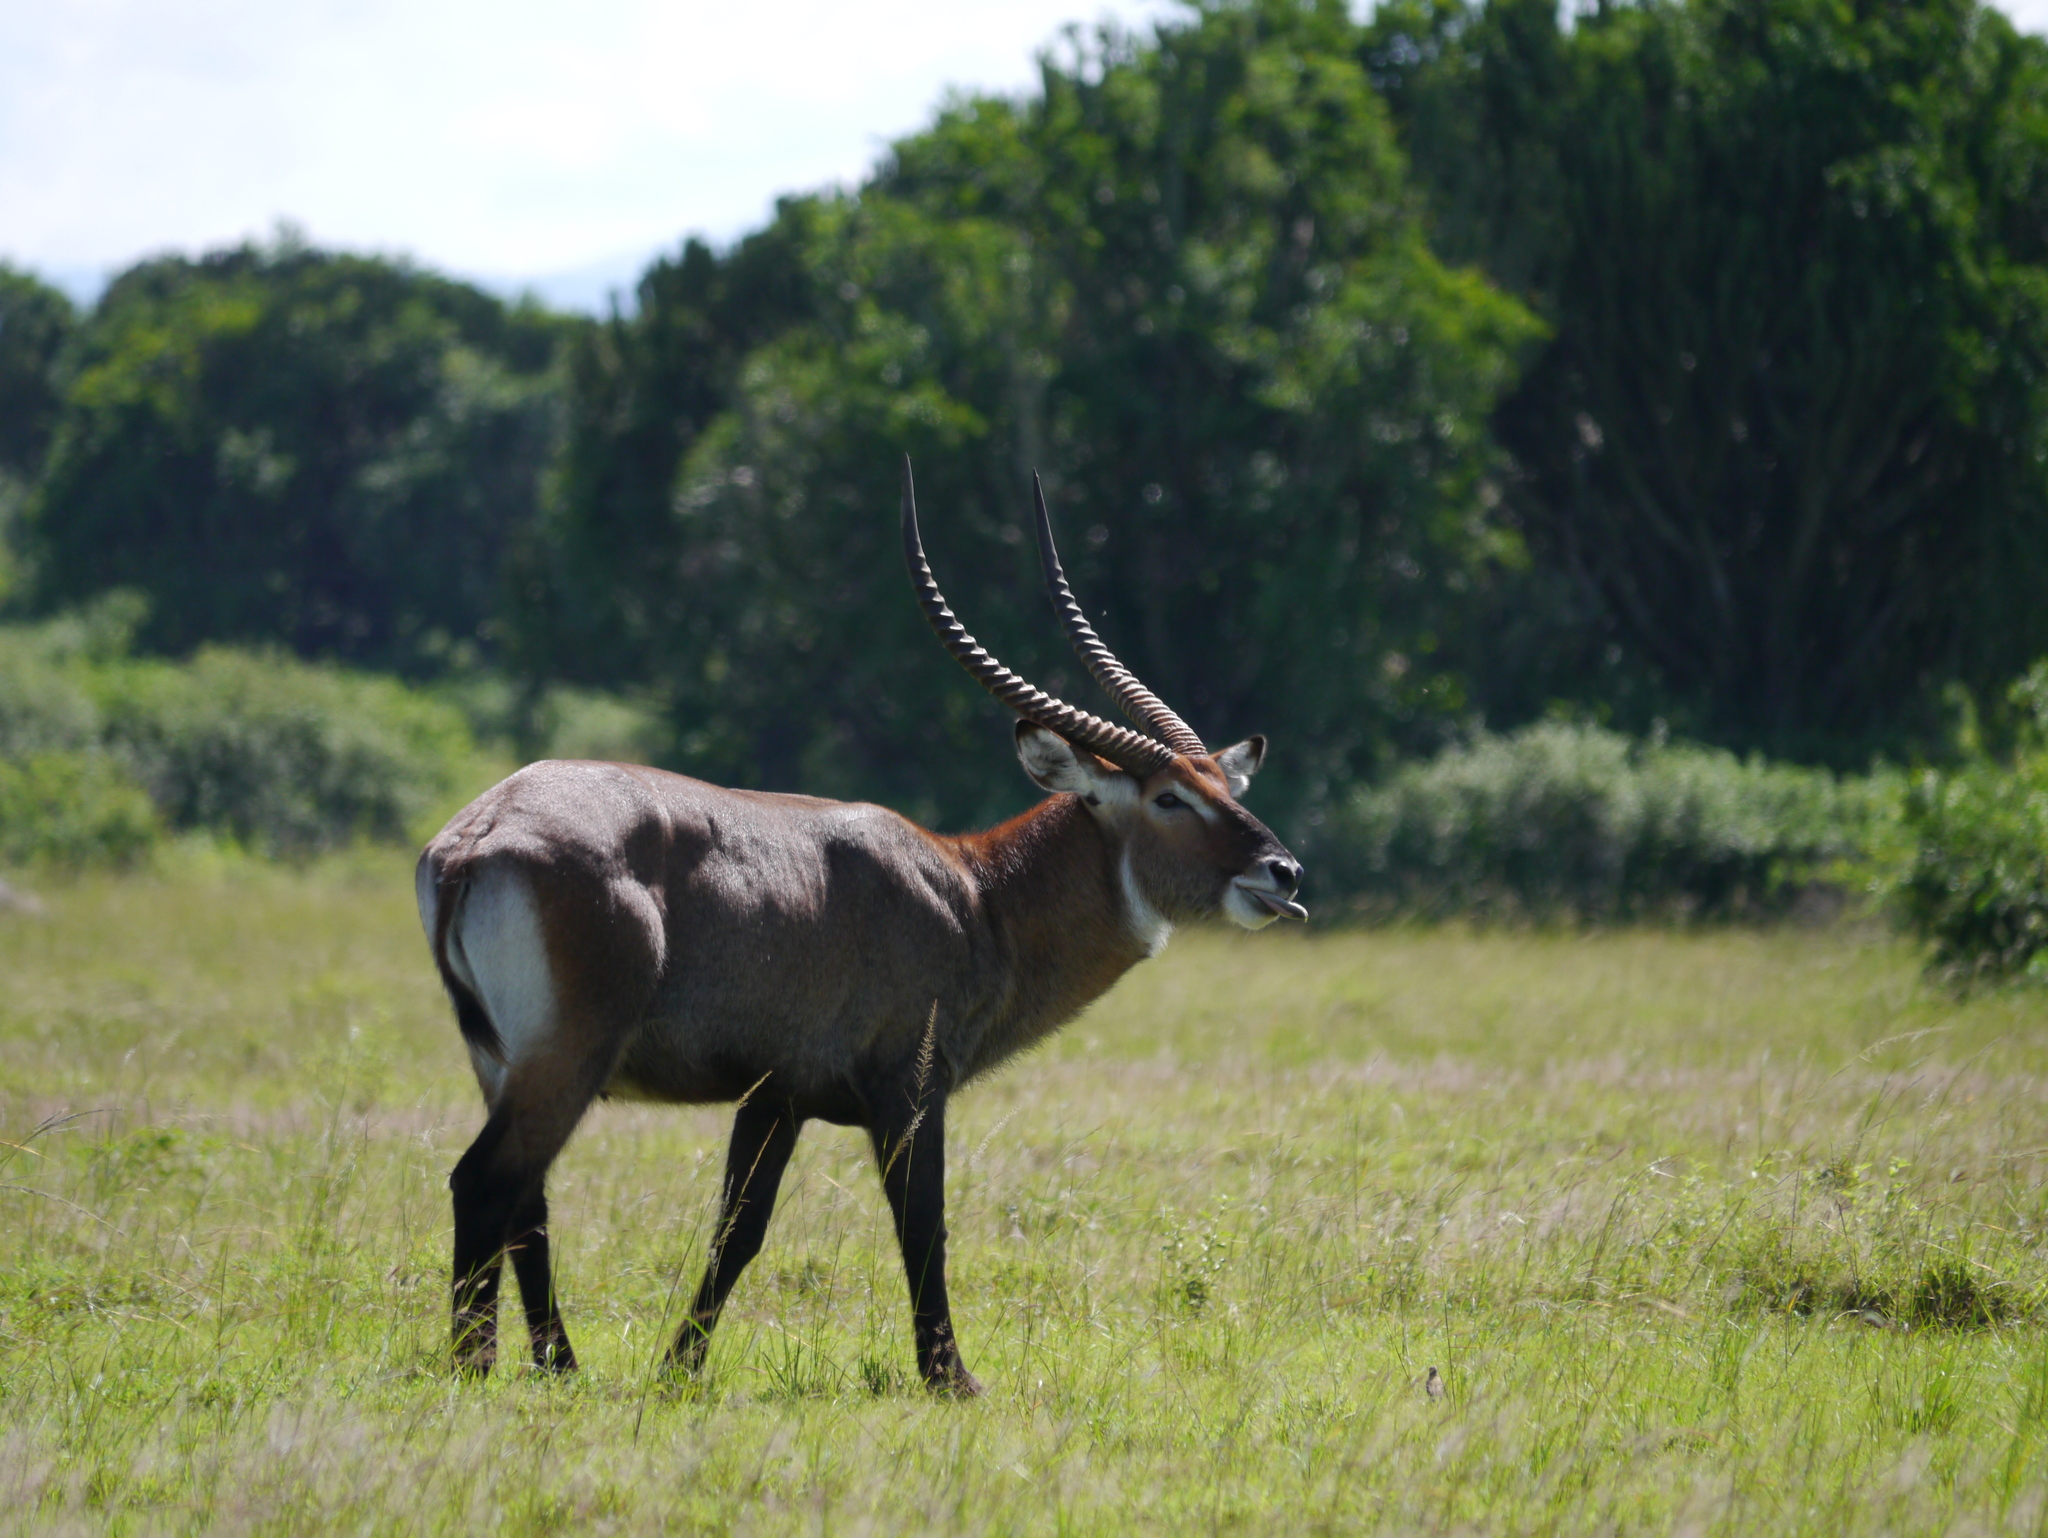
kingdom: Animalia
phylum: Chordata
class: Mammalia
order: Artiodactyla
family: Bovidae
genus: Kobus
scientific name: Kobus ellipsiprymnus
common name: Waterbuck
